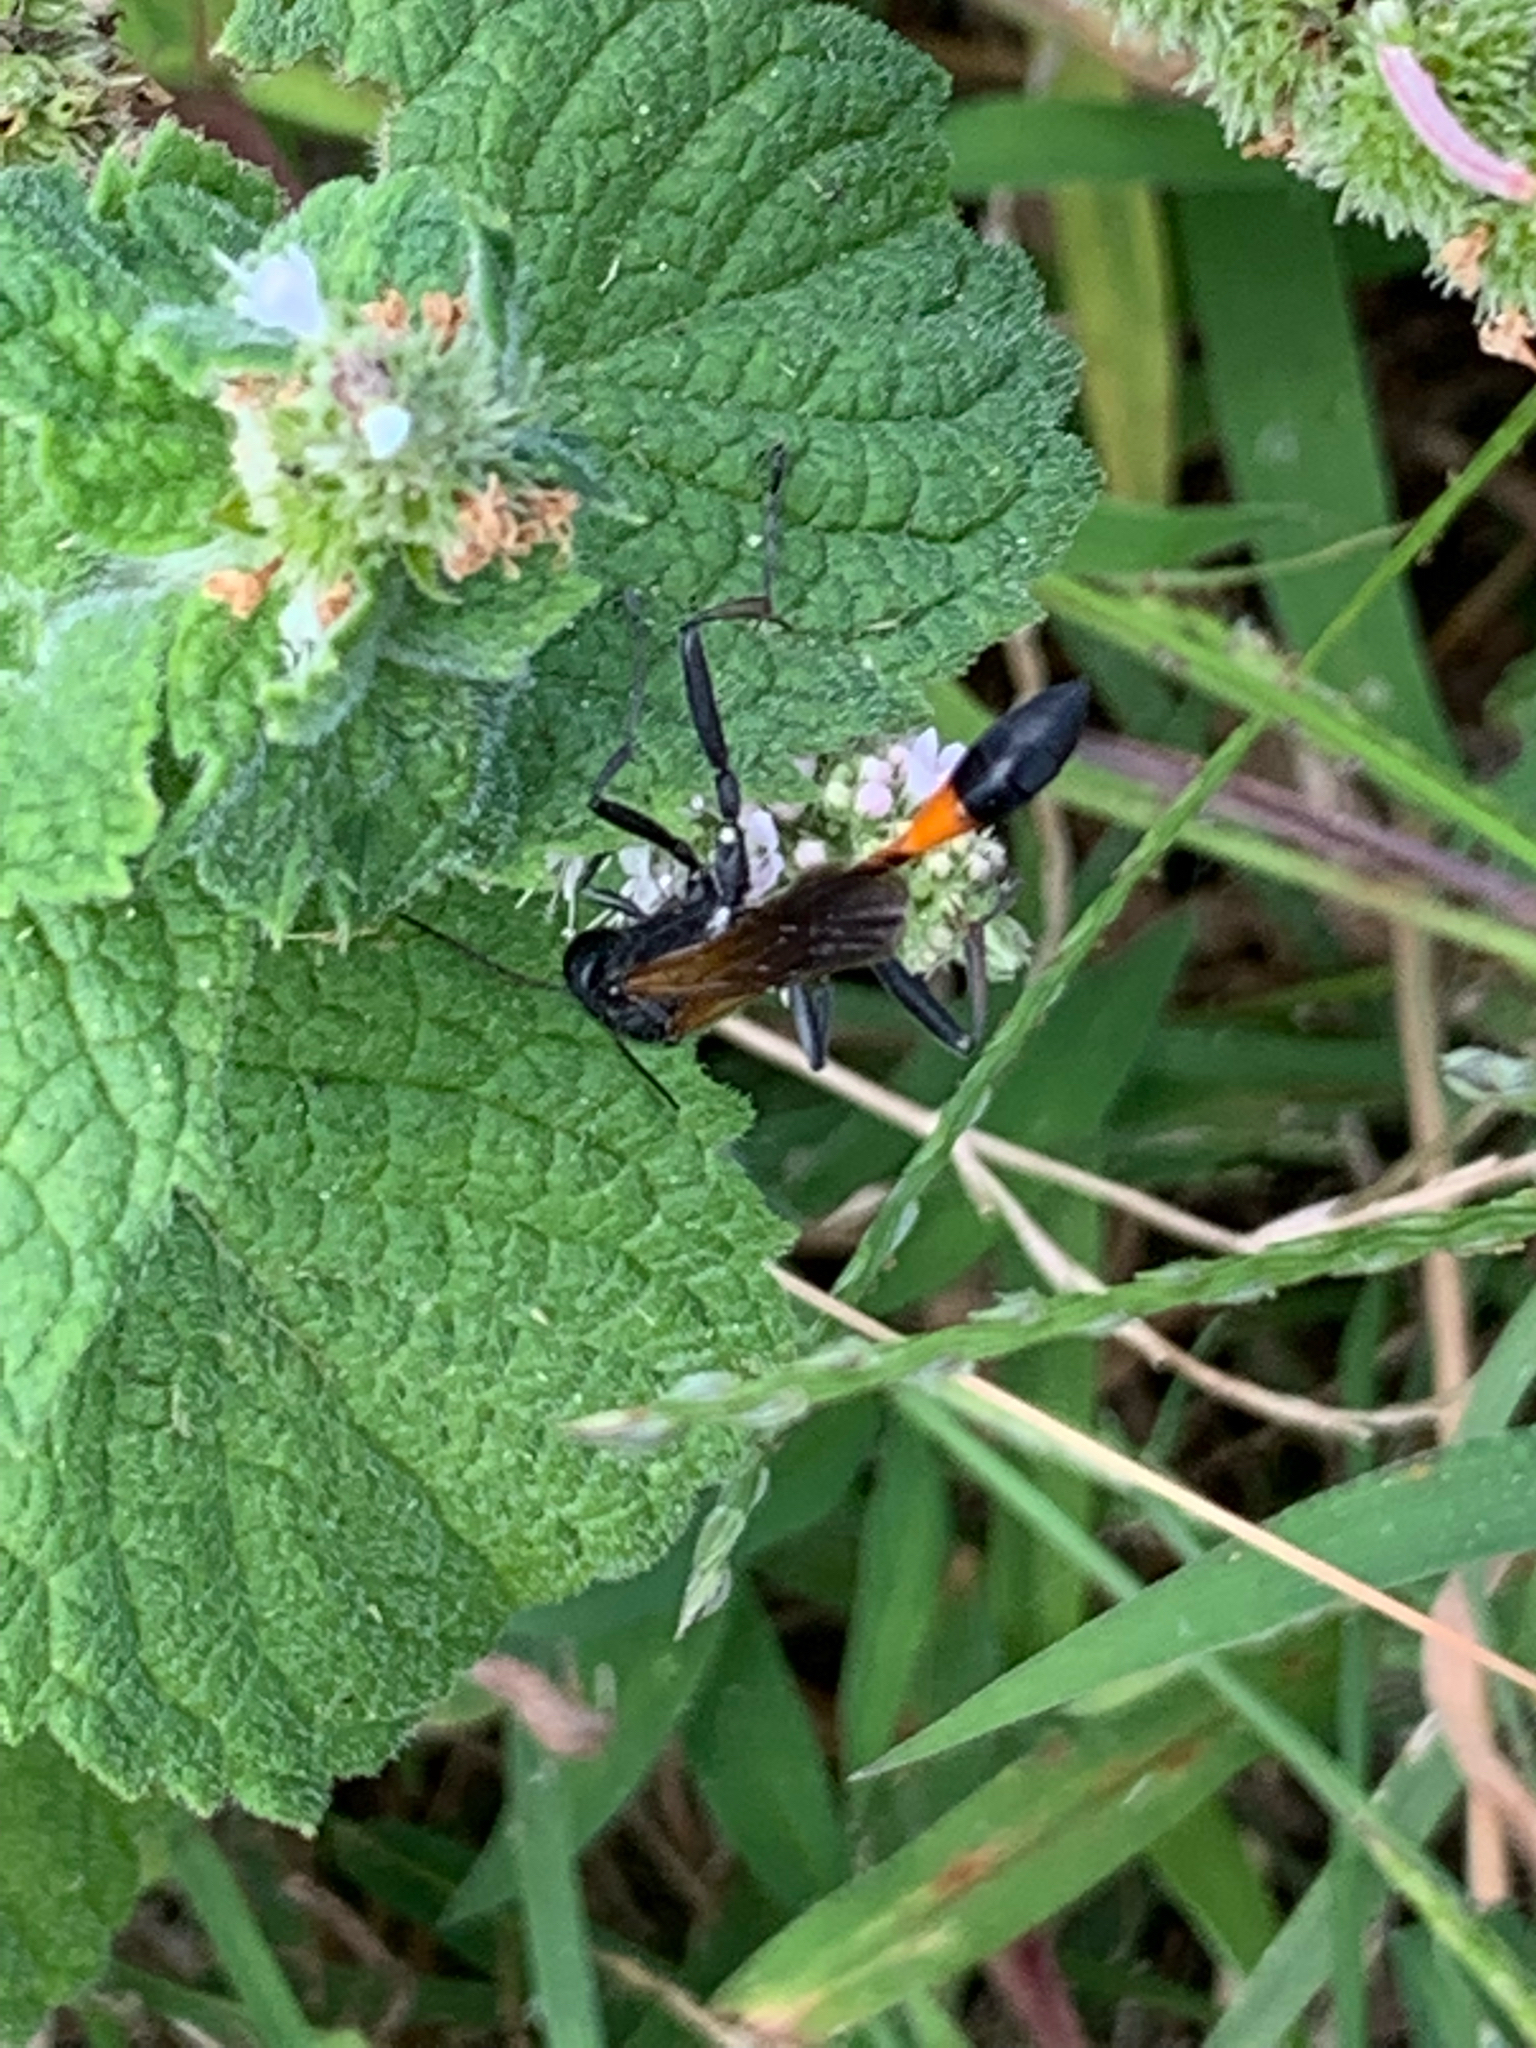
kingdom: Animalia
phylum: Arthropoda
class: Insecta
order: Hymenoptera
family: Sphecidae
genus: Ammophila
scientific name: Ammophila pictipennis
